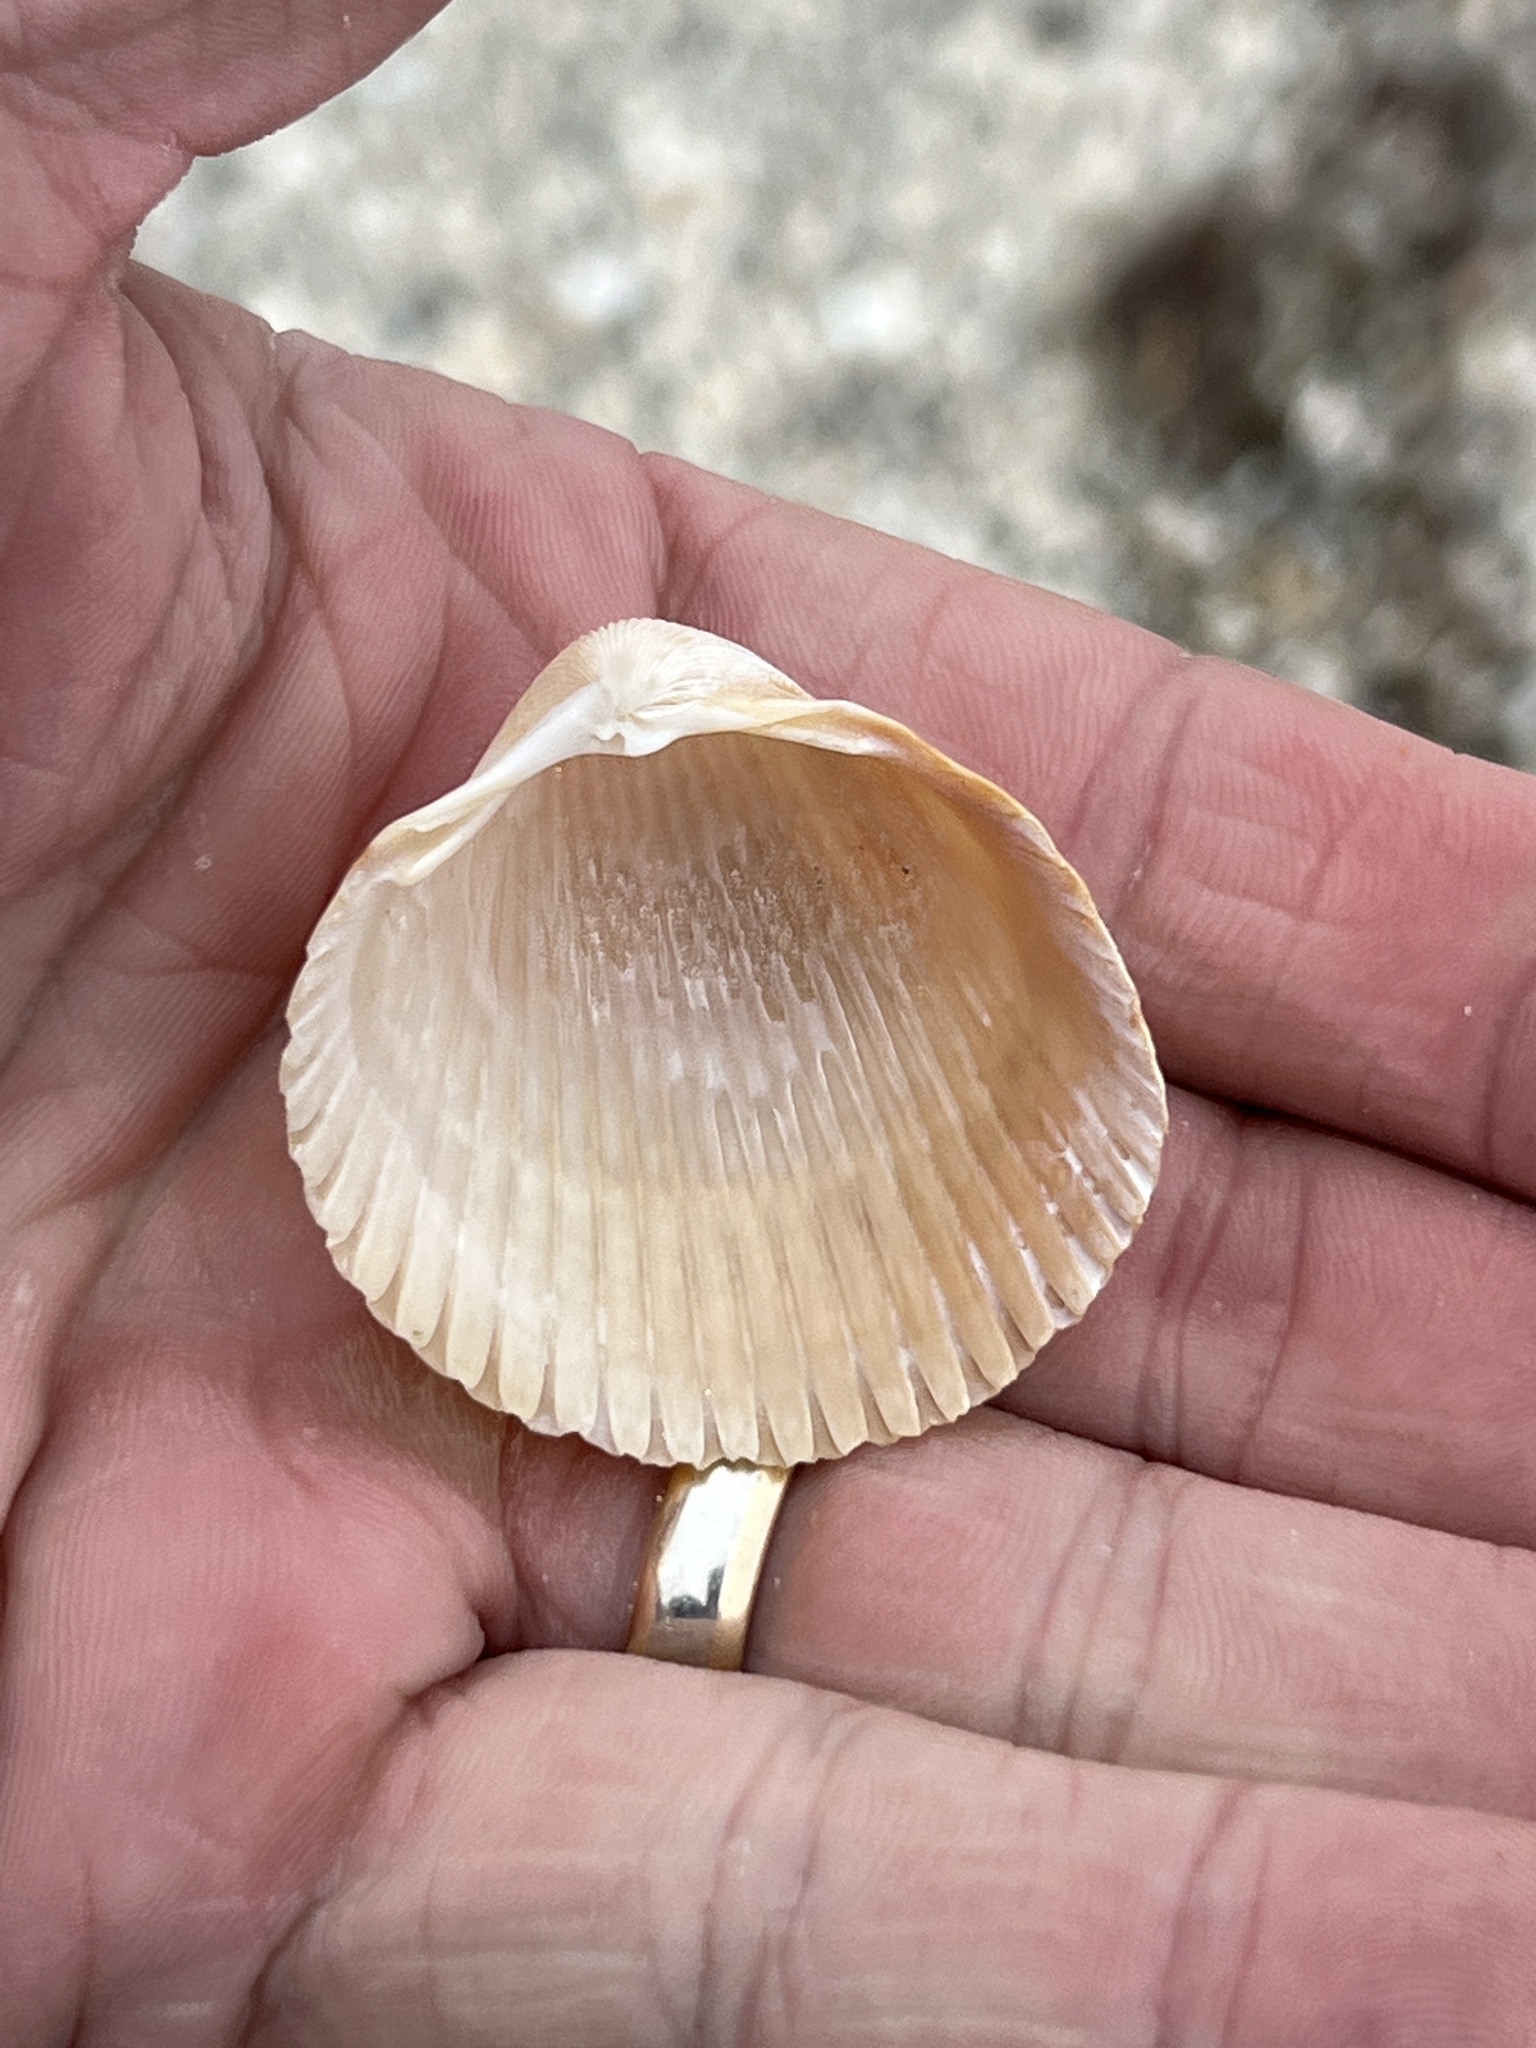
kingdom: Animalia
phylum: Mollusca
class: Bivalvia
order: Cardiida
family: Cardiidae
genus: Dinocardium
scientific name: Dinocardium robustum
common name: Atlantic giant cockle
